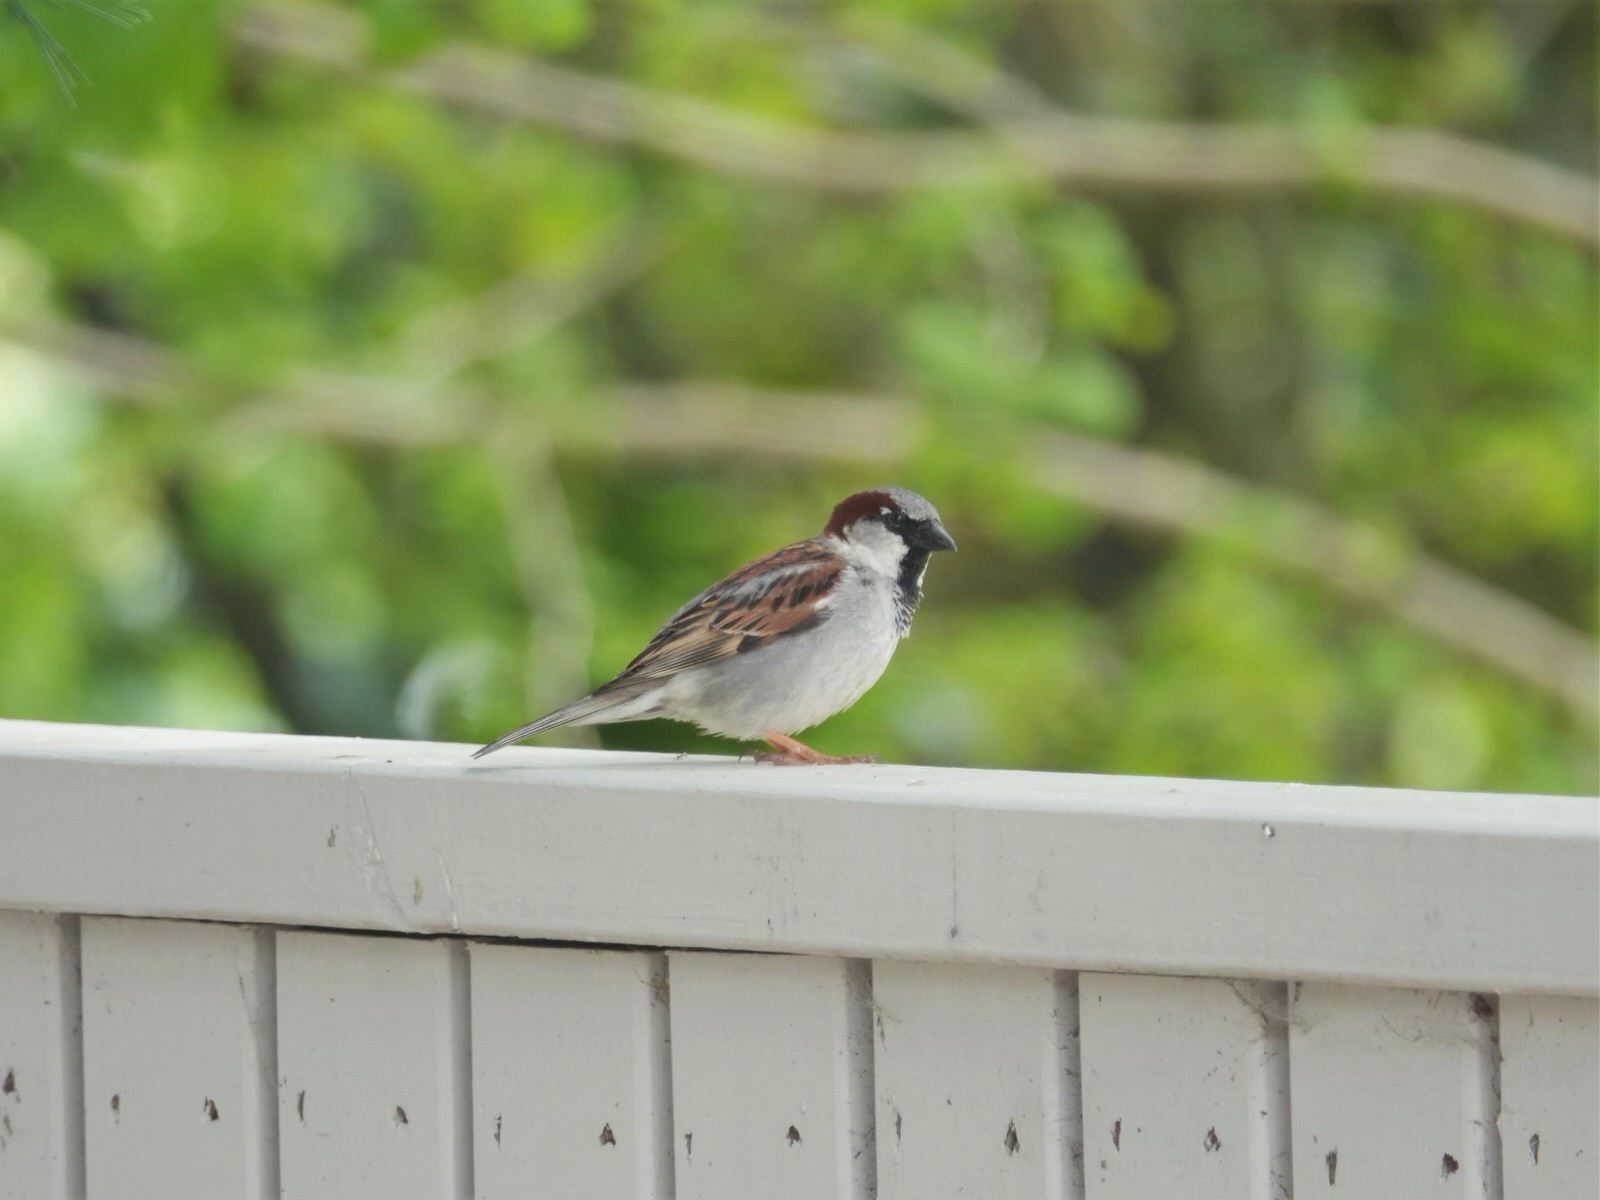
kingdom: Animalia
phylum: Chordata
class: Aves
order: Passeriformes
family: Passeridae
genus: Passer
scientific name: Passer domesticus
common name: House sparrow
